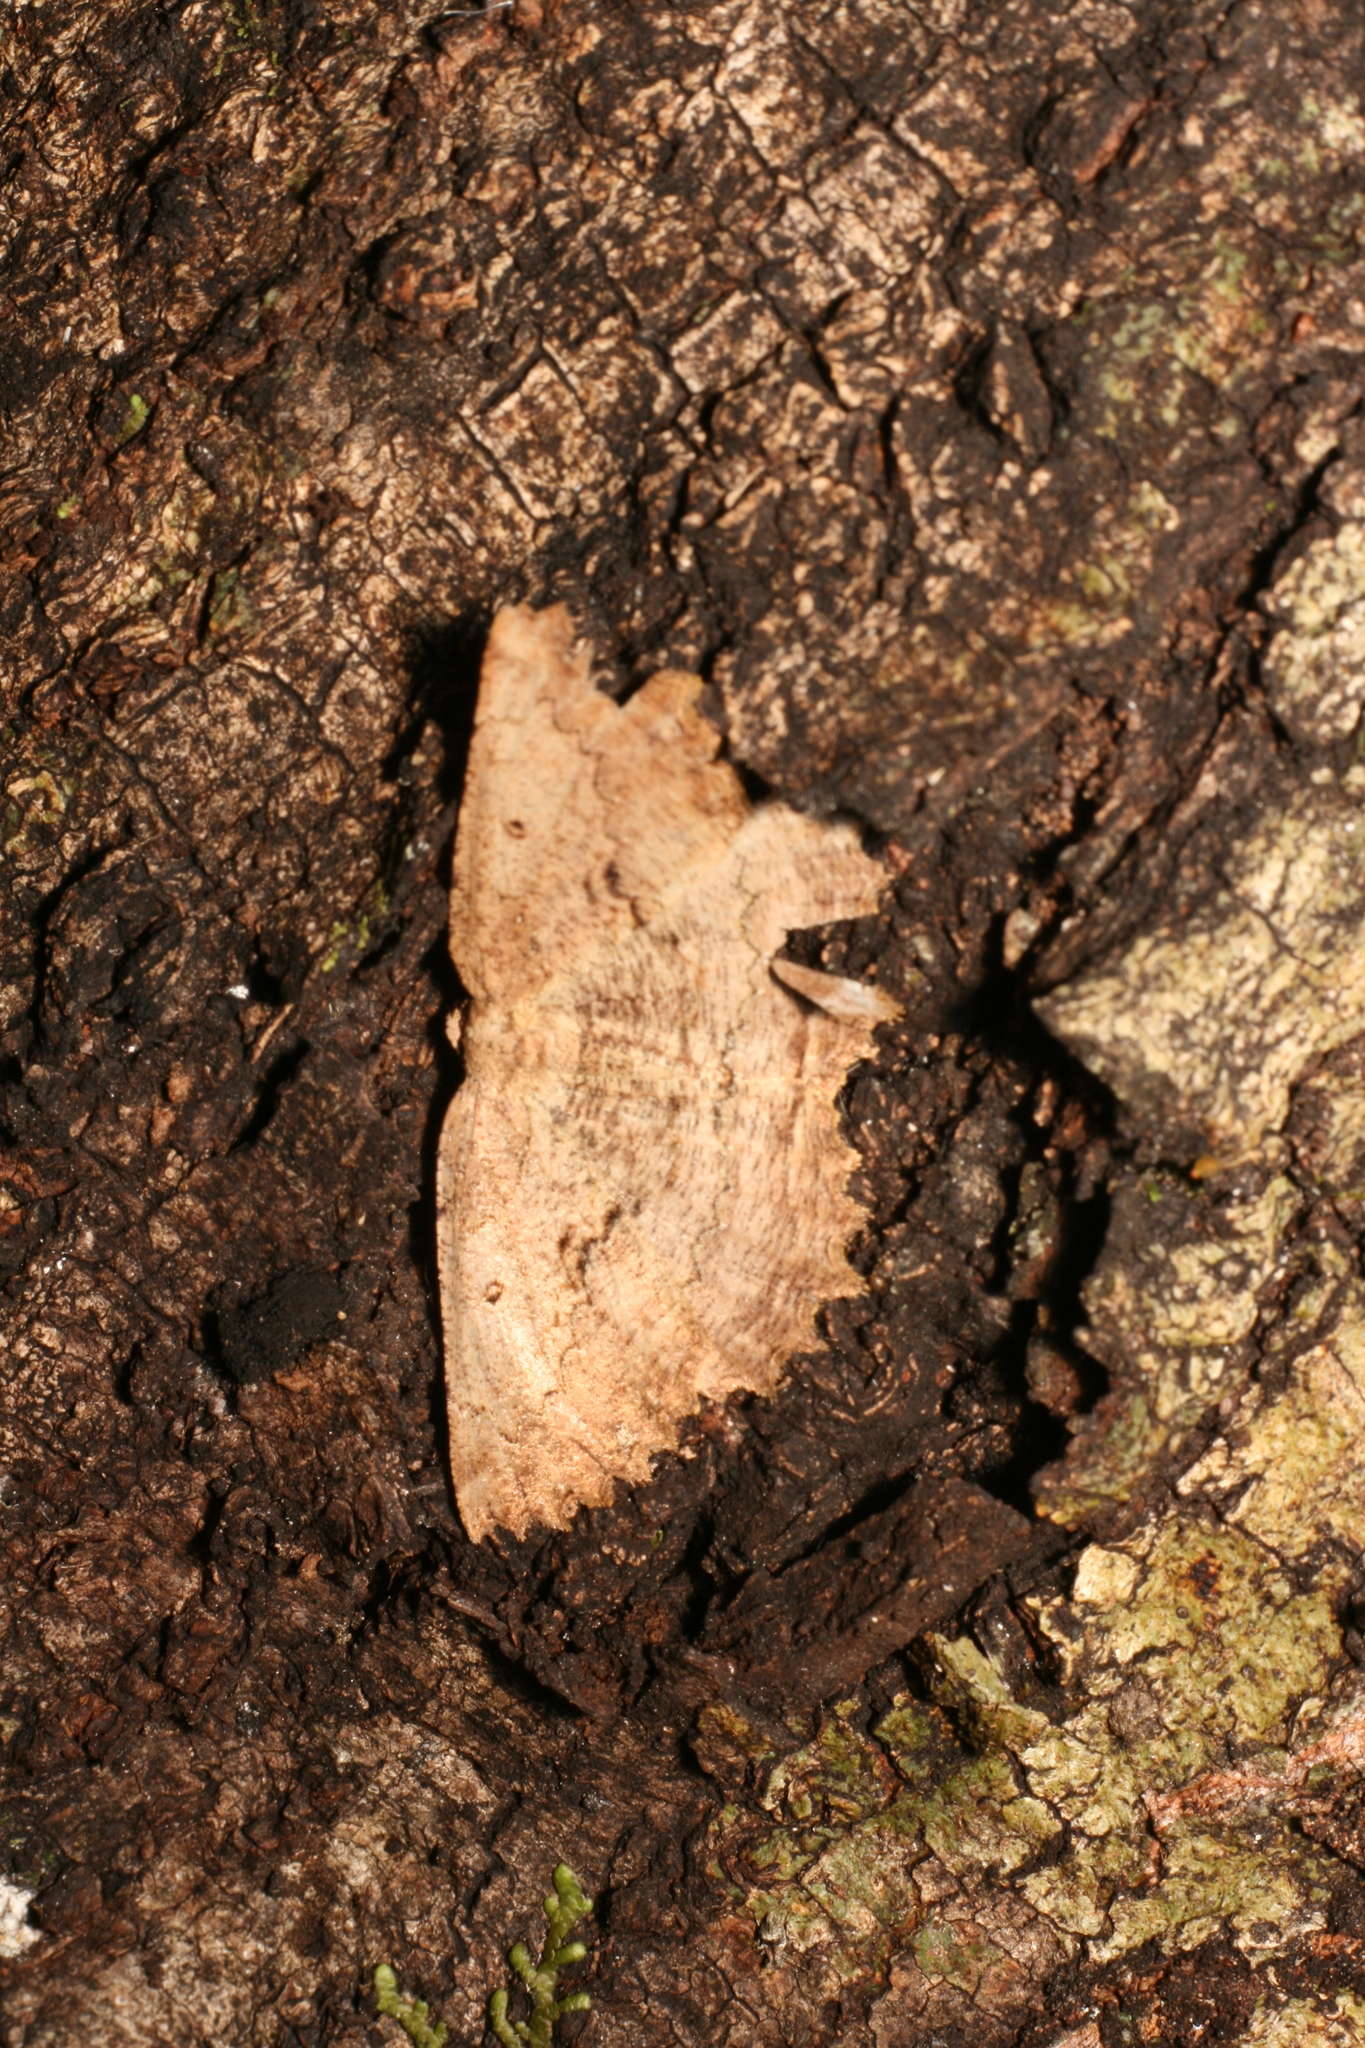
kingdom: Animalia
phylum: Arthropoda
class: Insecta
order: Lepidoptera
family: Geometridae
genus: Gellonia
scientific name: Gellonia pannularia
